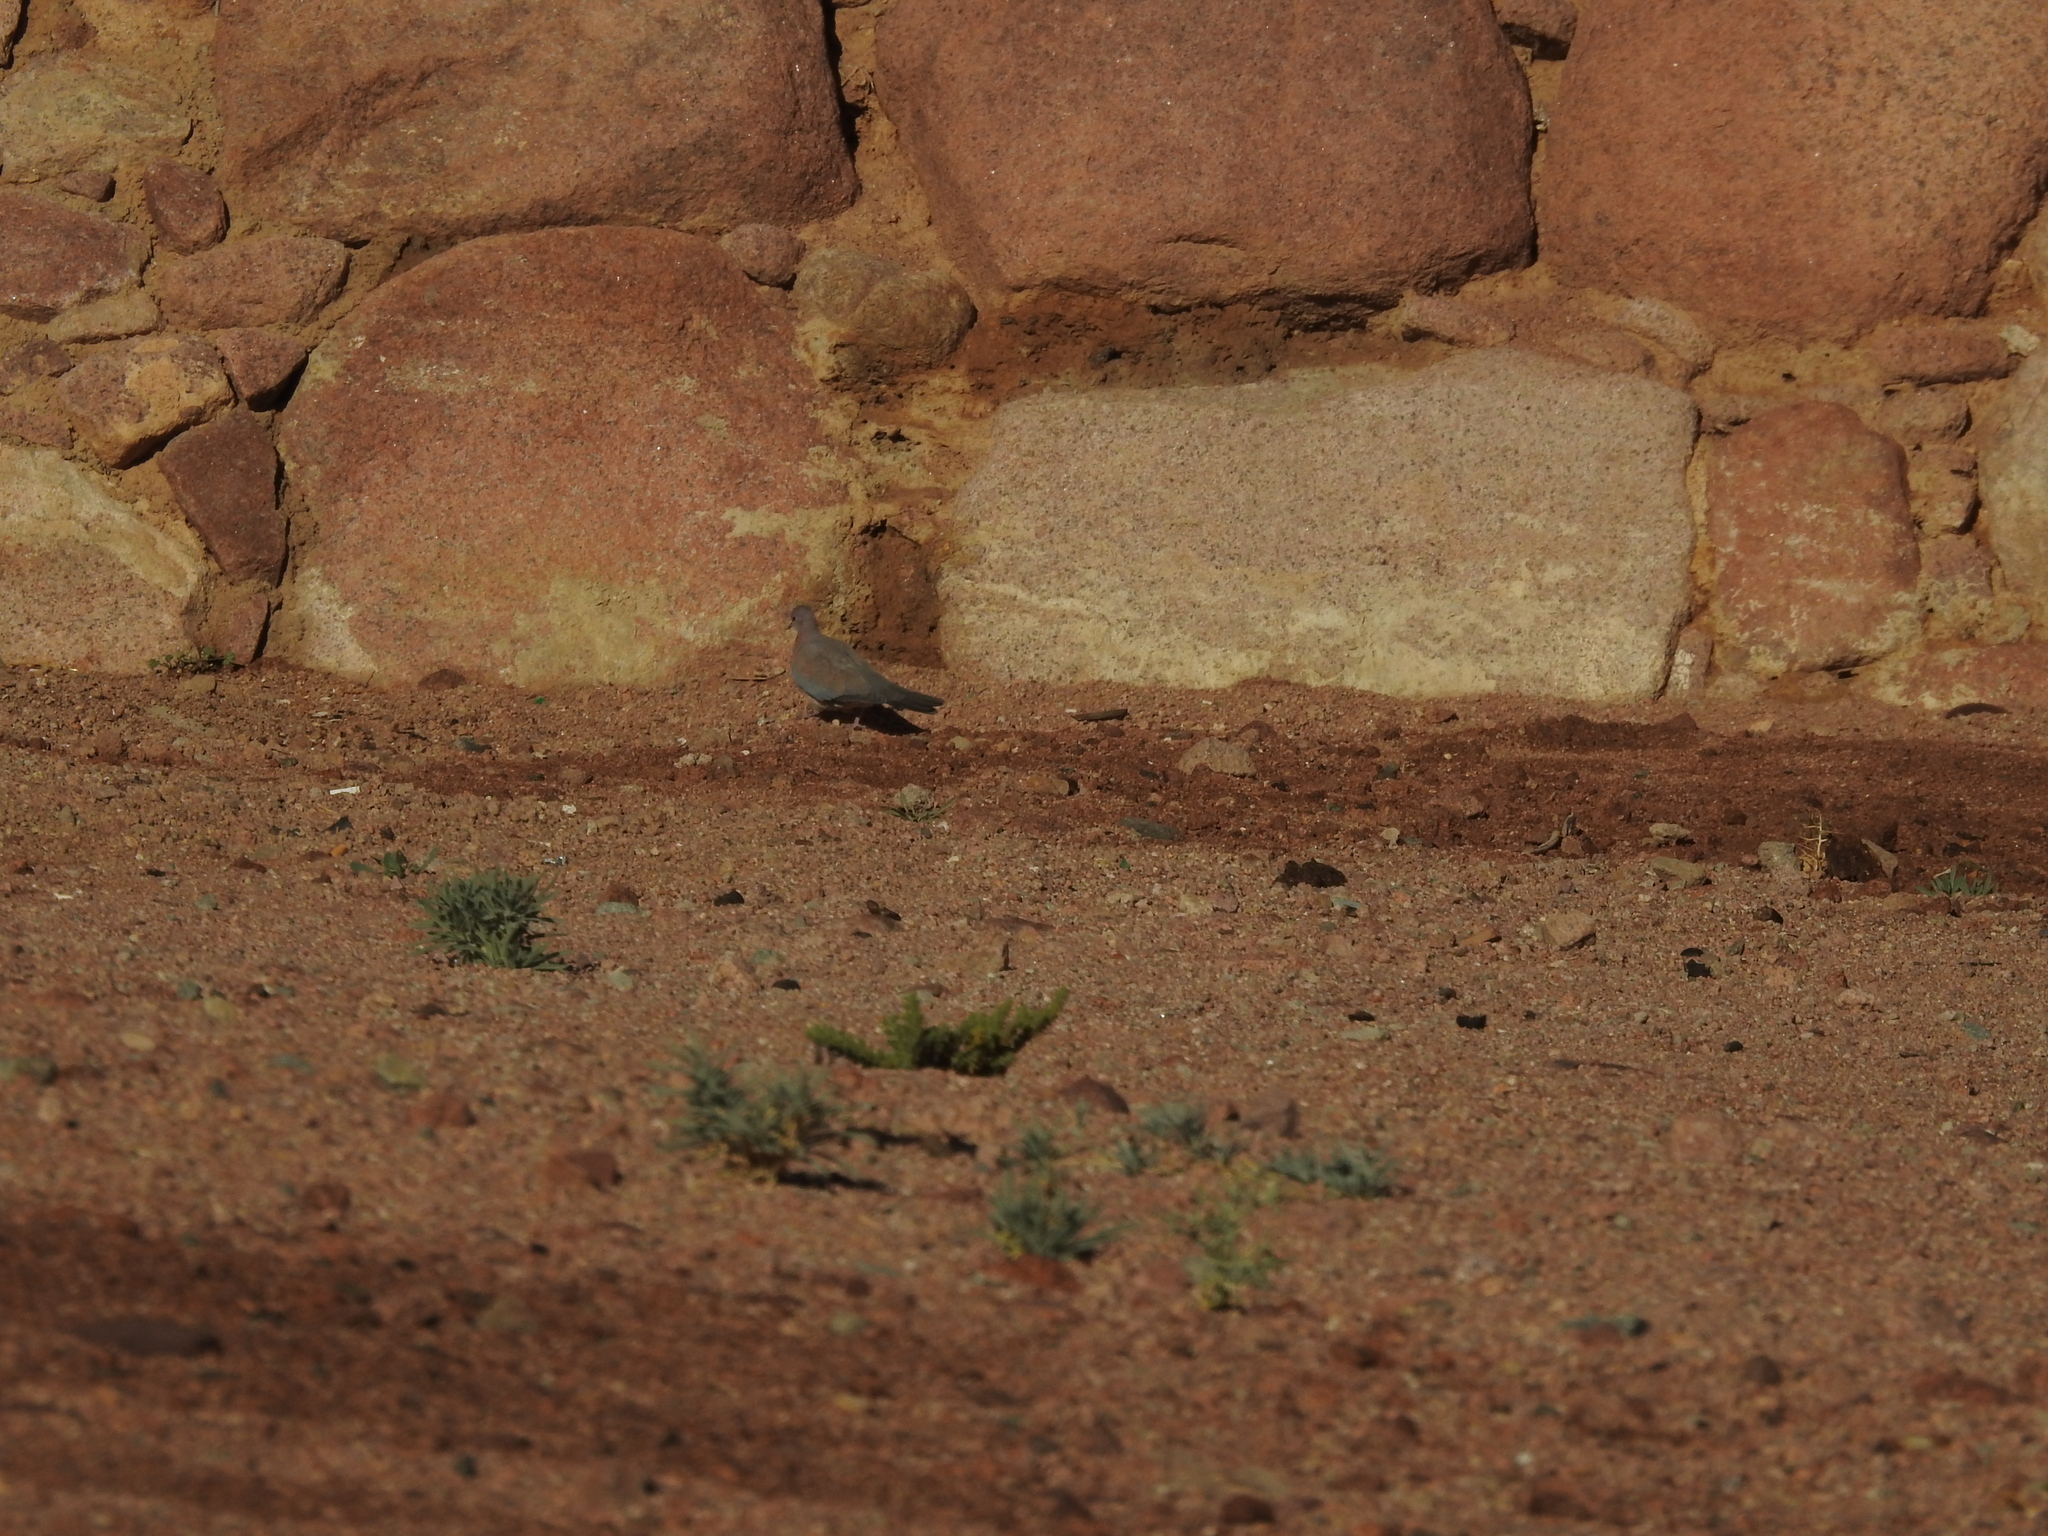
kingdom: Animalia
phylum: Chordata
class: Aves
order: Columbiformes
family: Columbidae
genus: Spilopelia
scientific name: Spilopelia senegalensis
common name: Laughing dove
